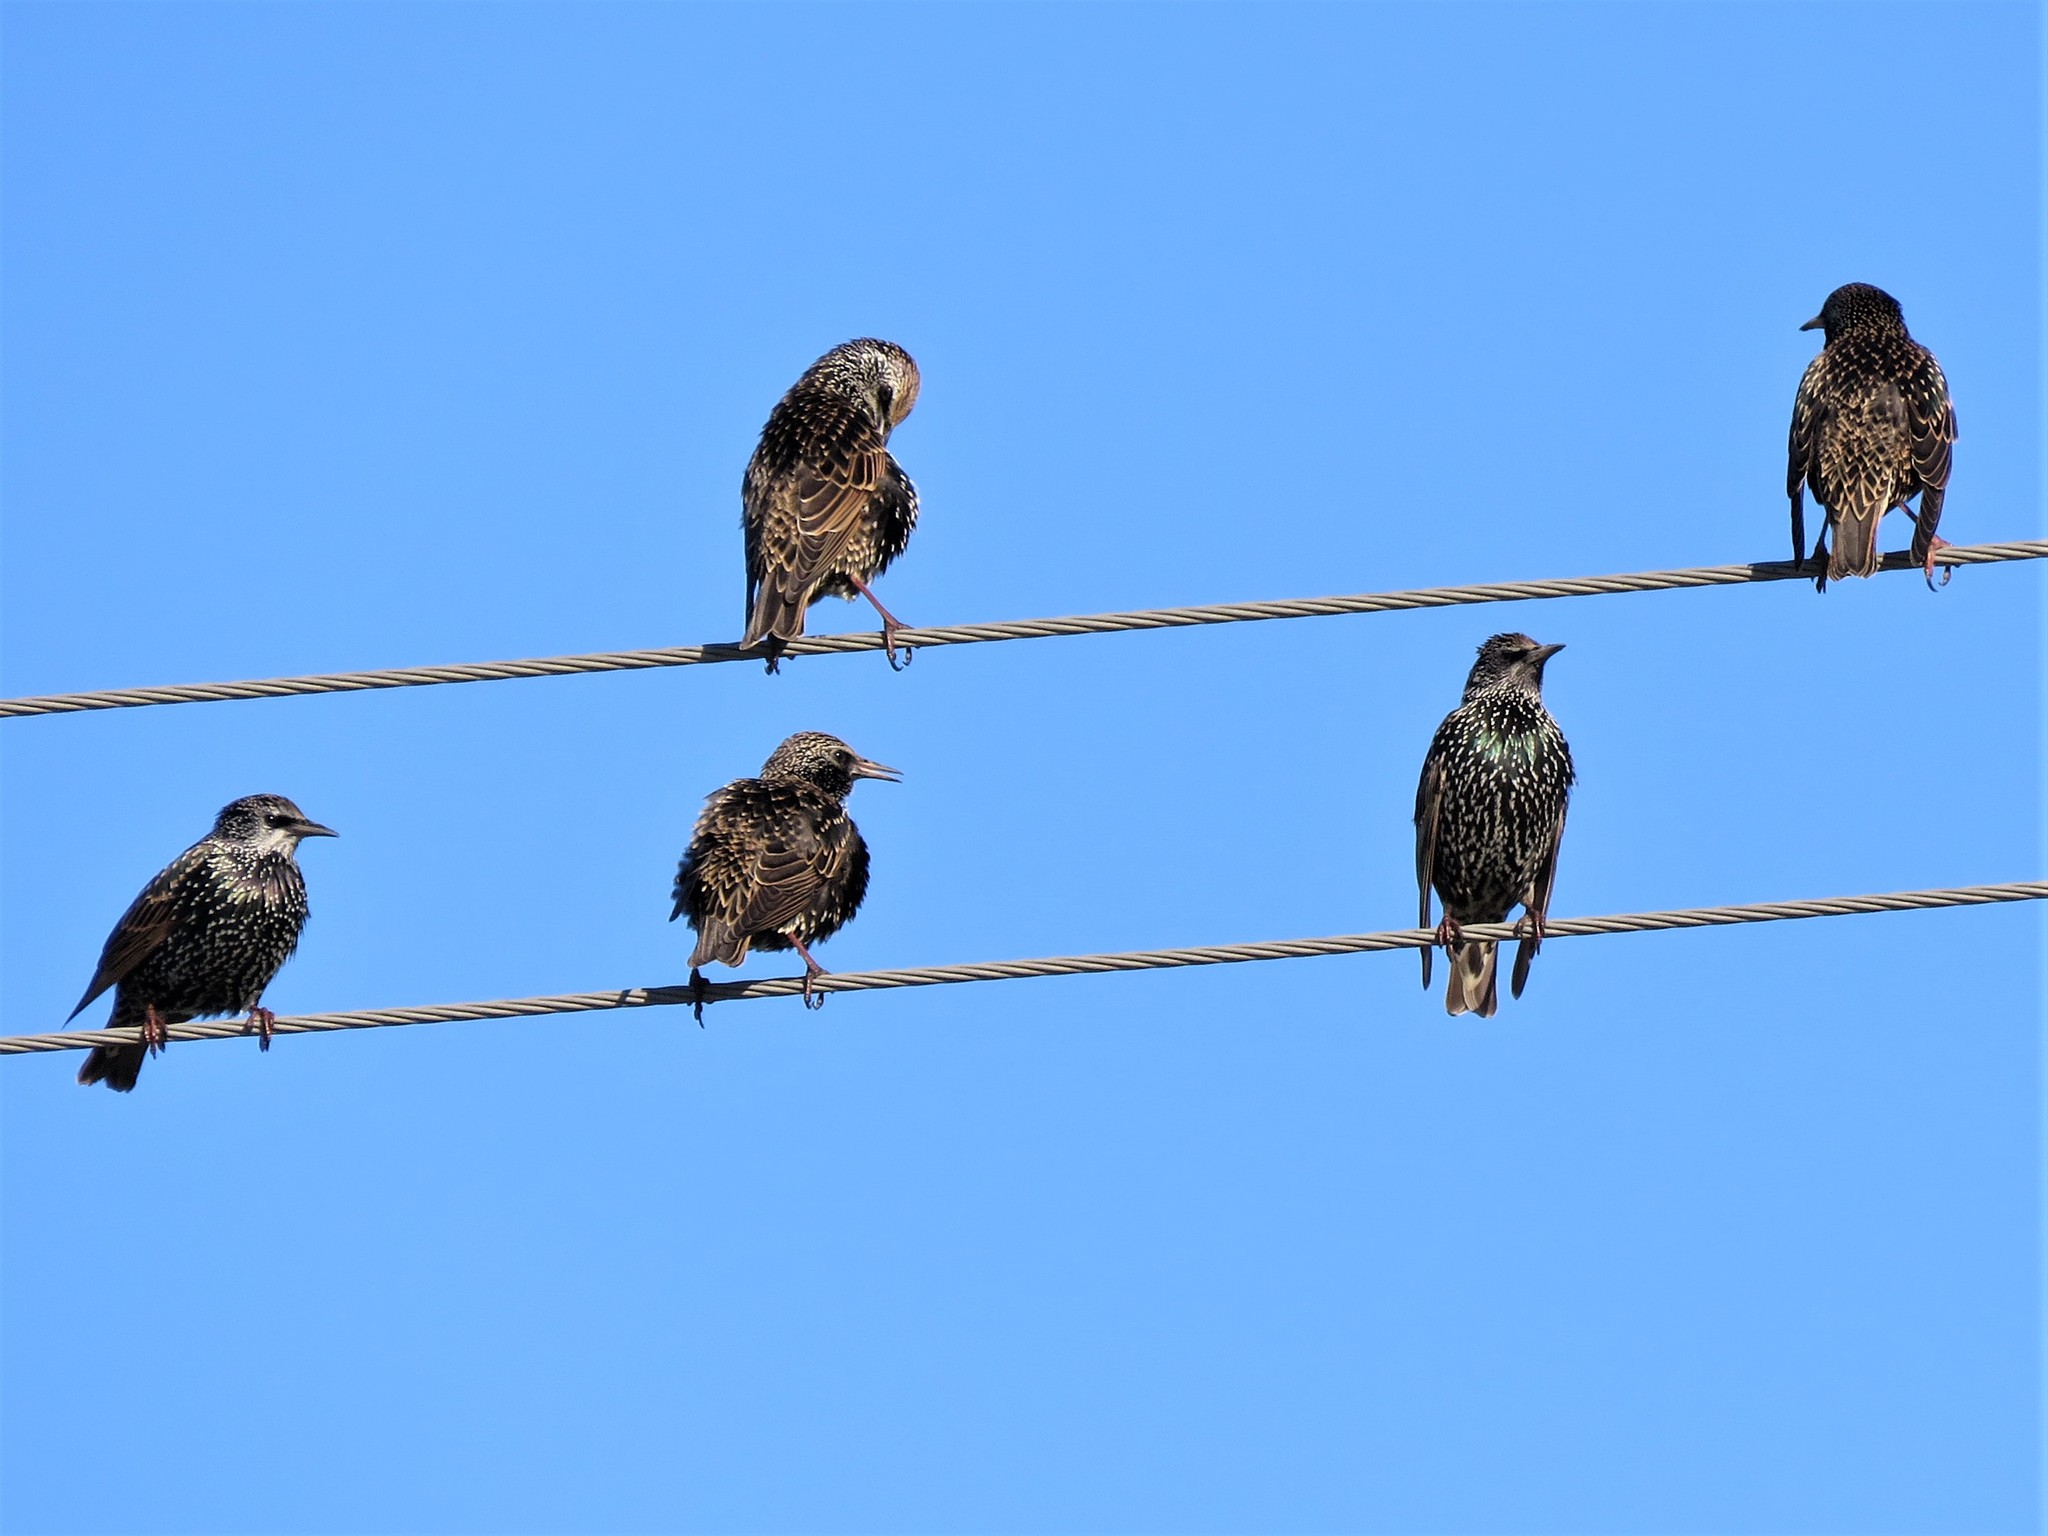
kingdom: Animalia
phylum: Chordata
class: Aves
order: Passeriformes
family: Sturnidae
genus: Sturnus
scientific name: Sturnus vulgaris
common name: Common starling
